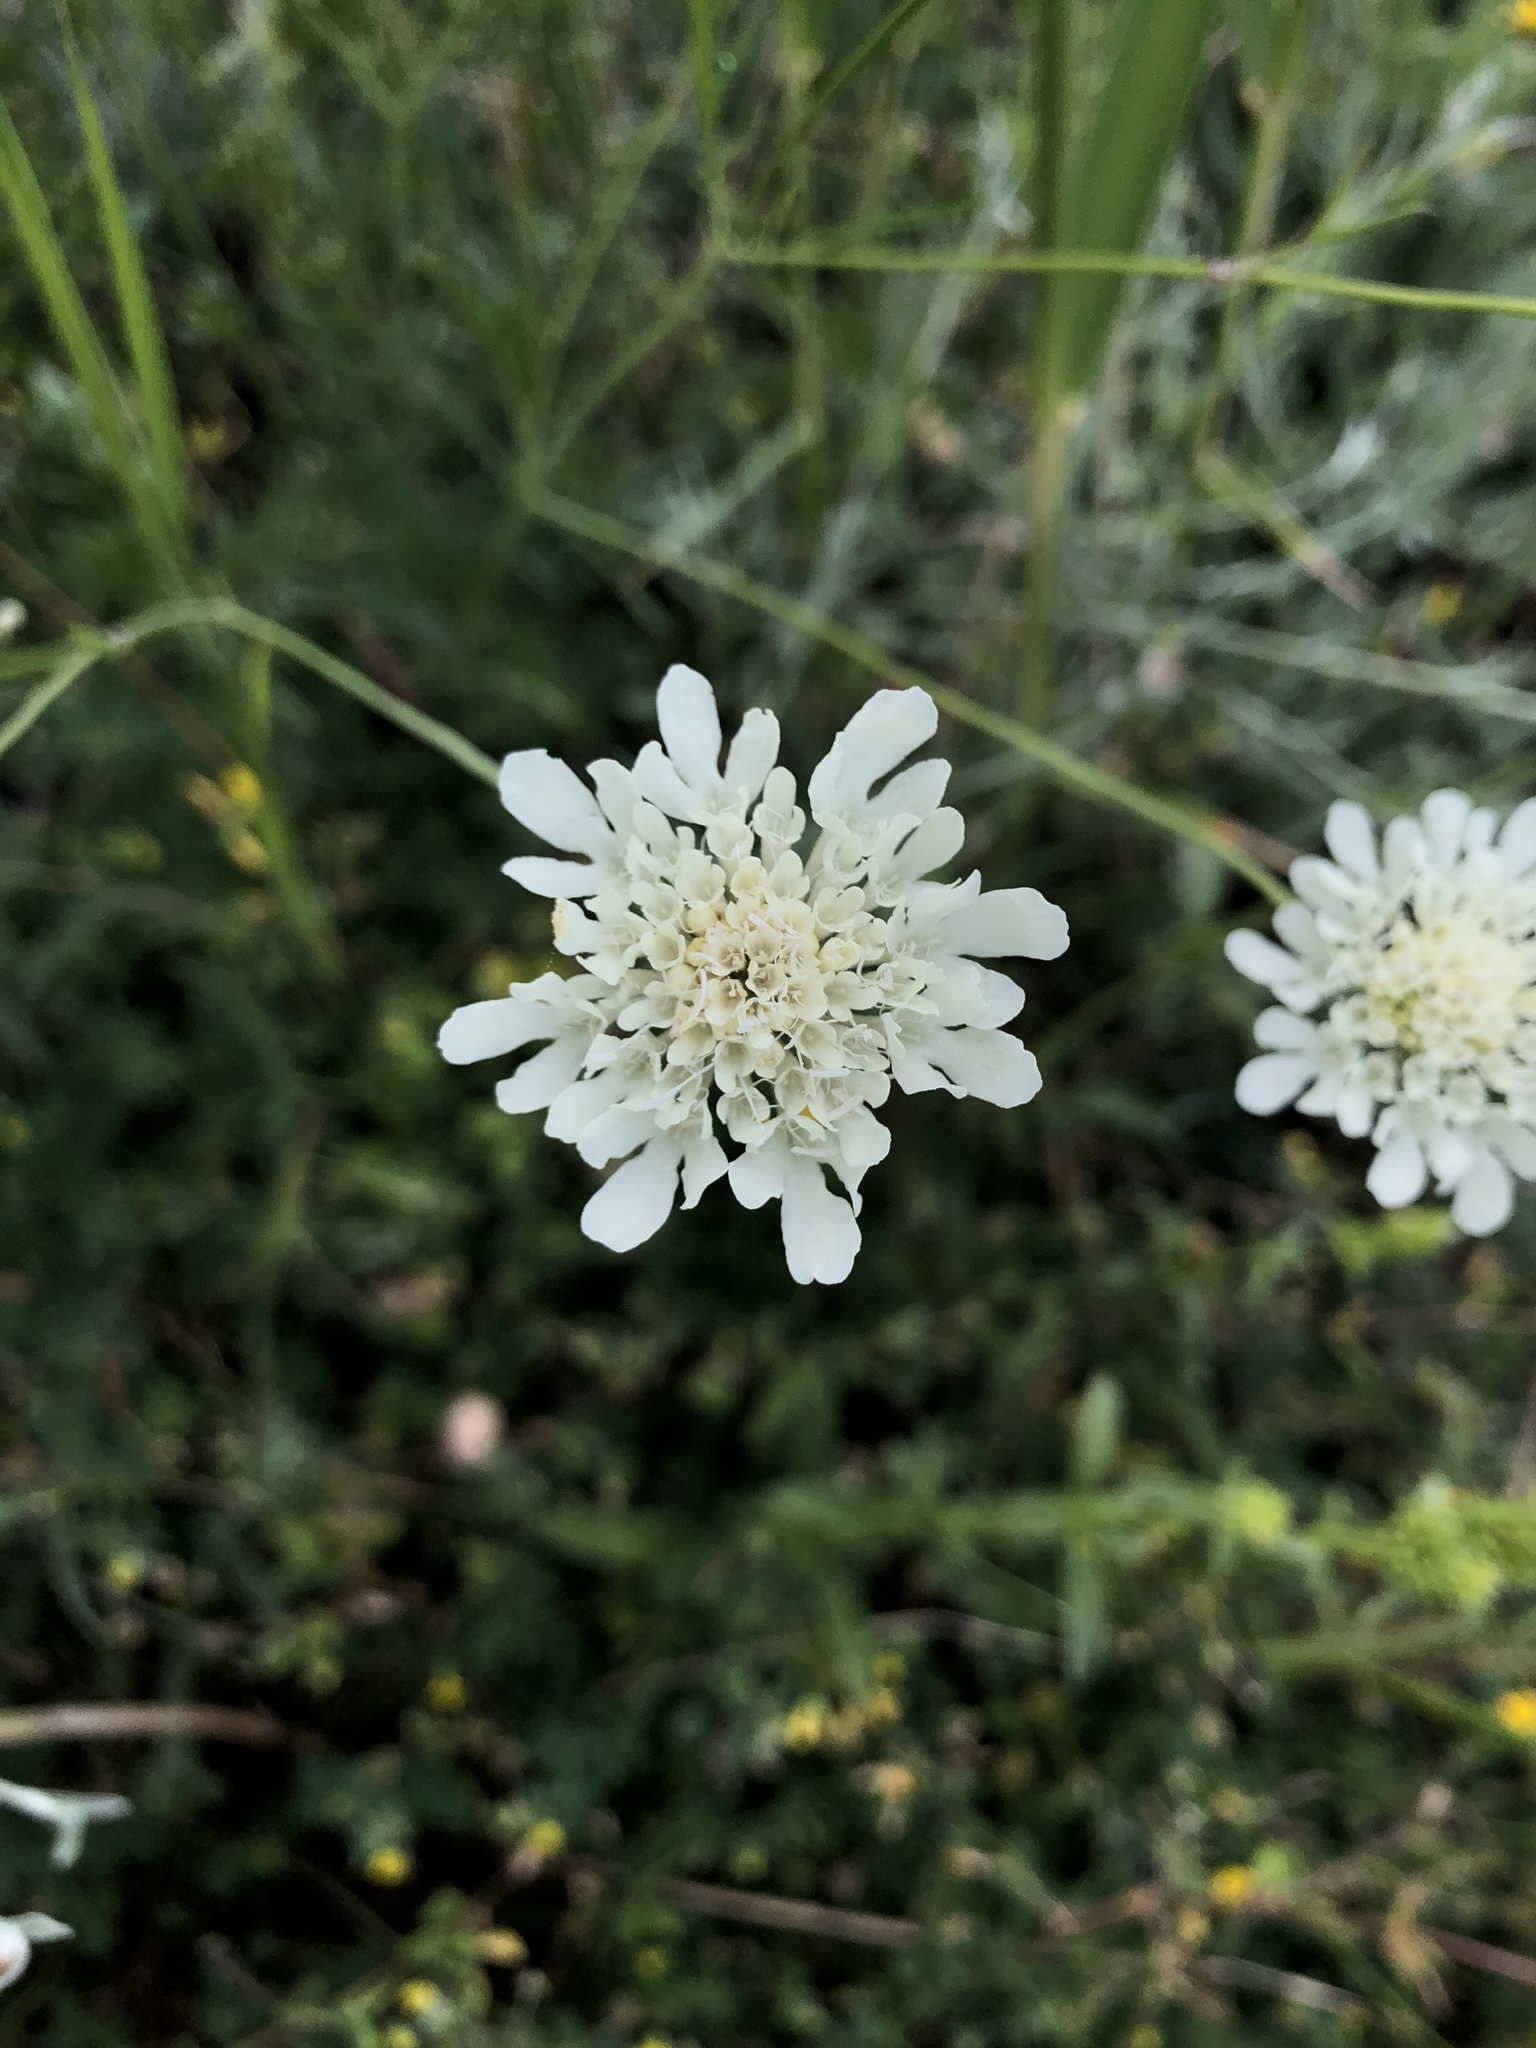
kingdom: Plantae
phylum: Tracheophyta
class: Magnoliopsida
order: Dipsacales
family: Caprifoliaceae
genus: Scabiosa
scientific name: Scabiosa ochroleuca
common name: Cream pincushions
